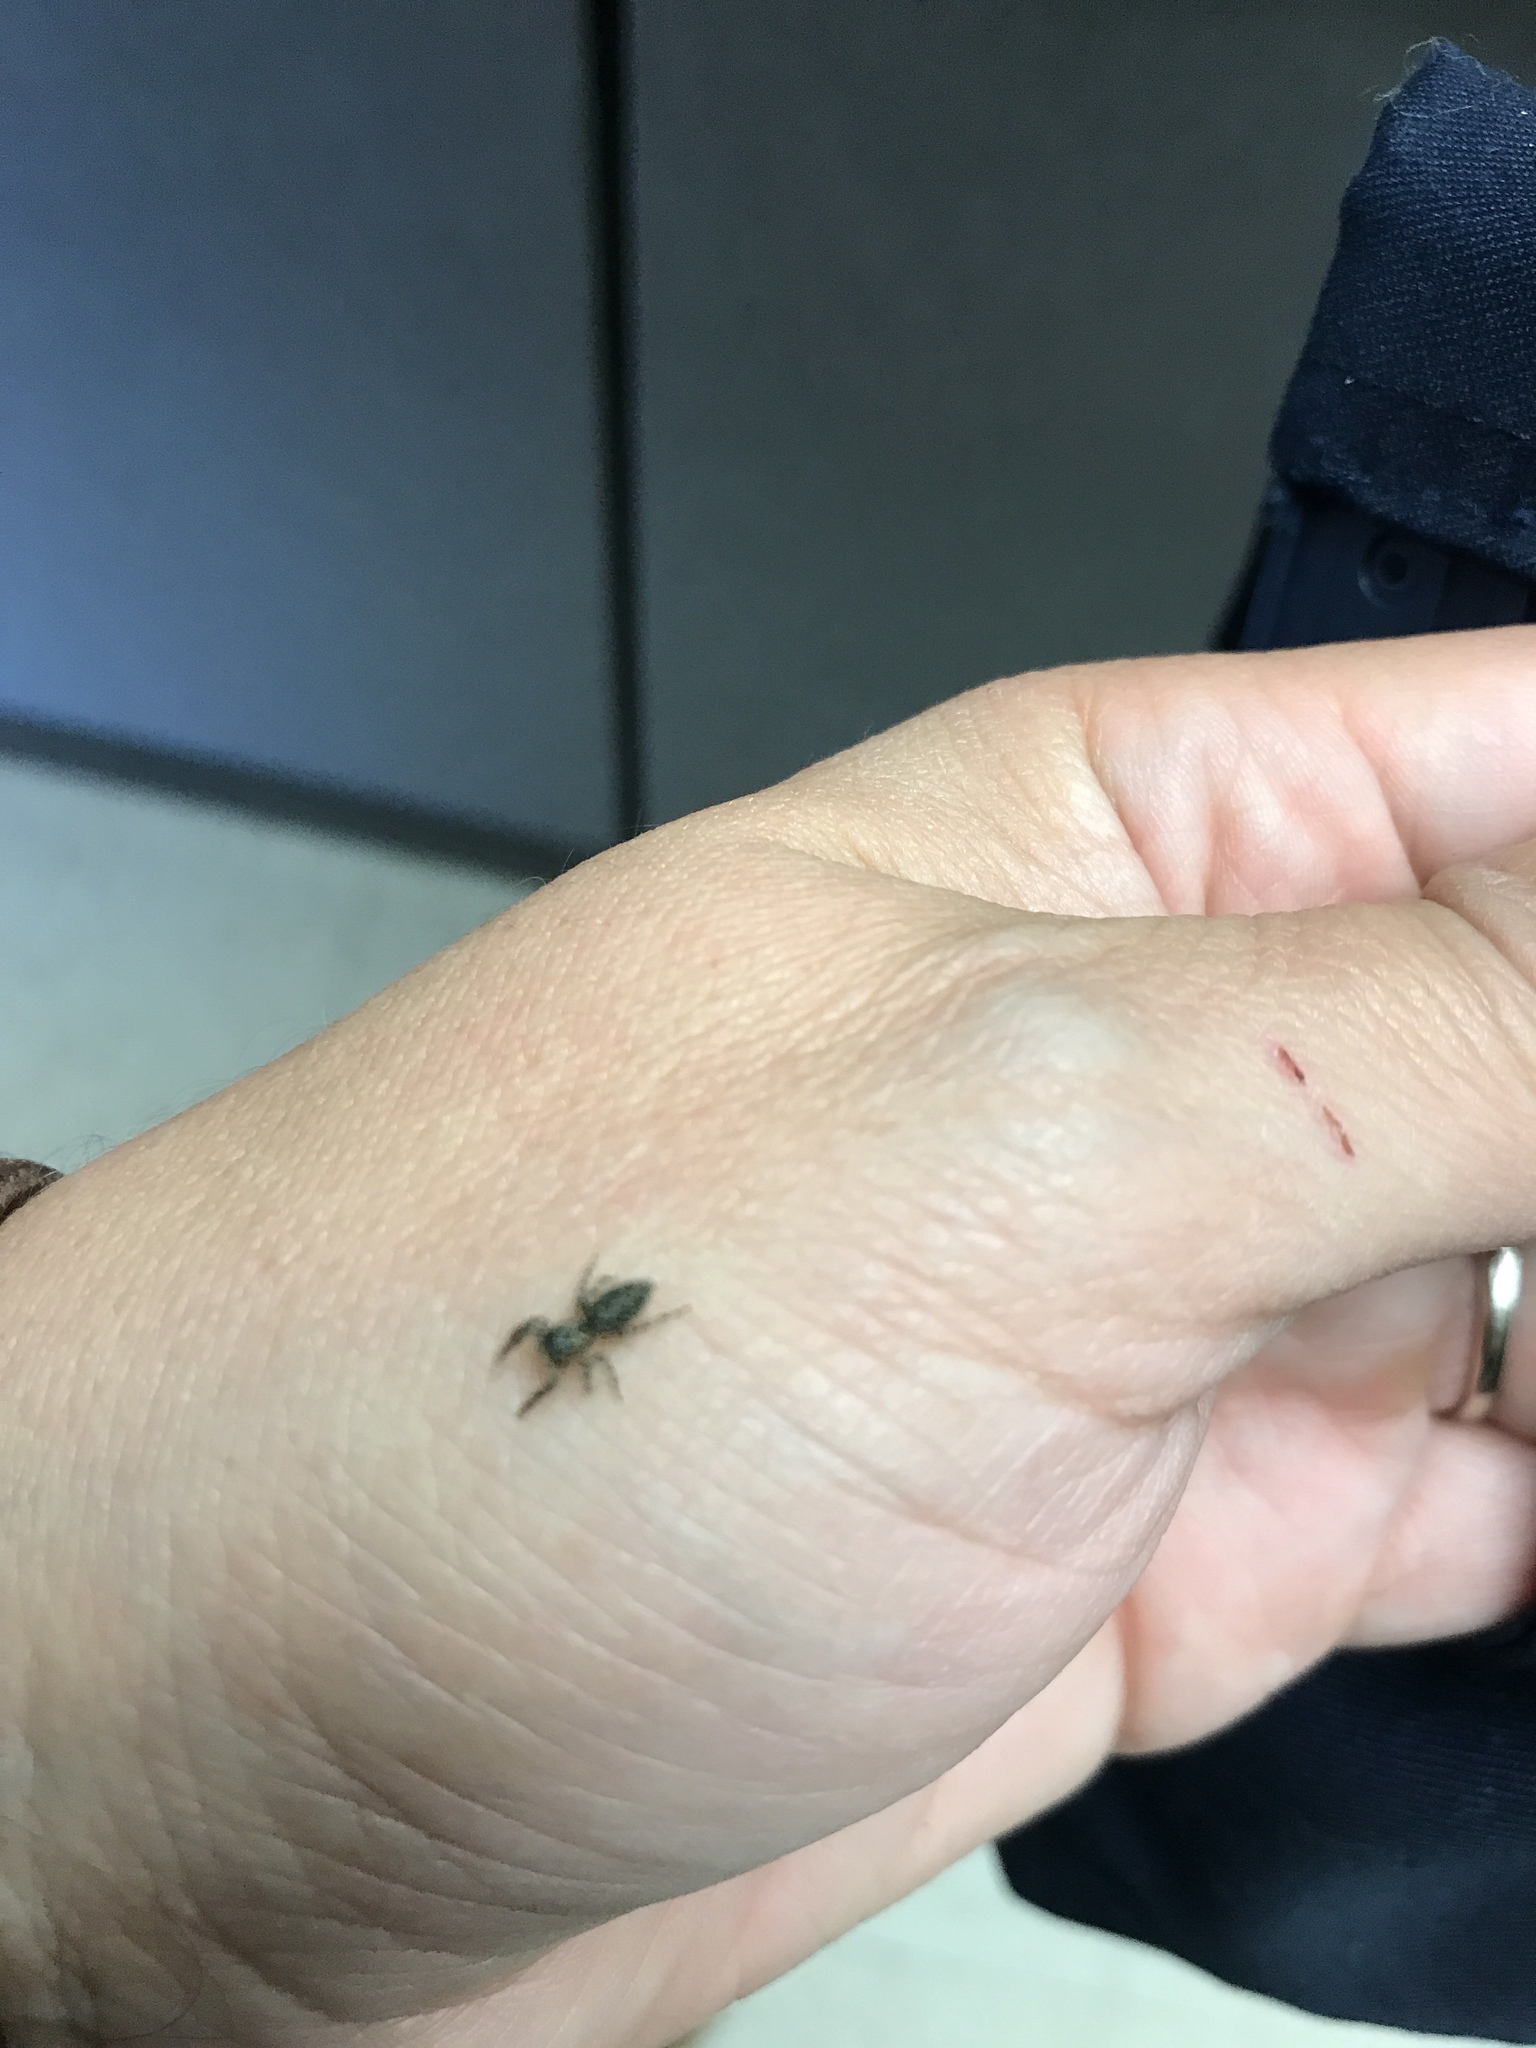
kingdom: Animalia
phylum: Arthropoda
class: Arachnida
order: Araneae
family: Salticidae
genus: Platycryptus
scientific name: Platycryptus undatus
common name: Tan jumping spider
